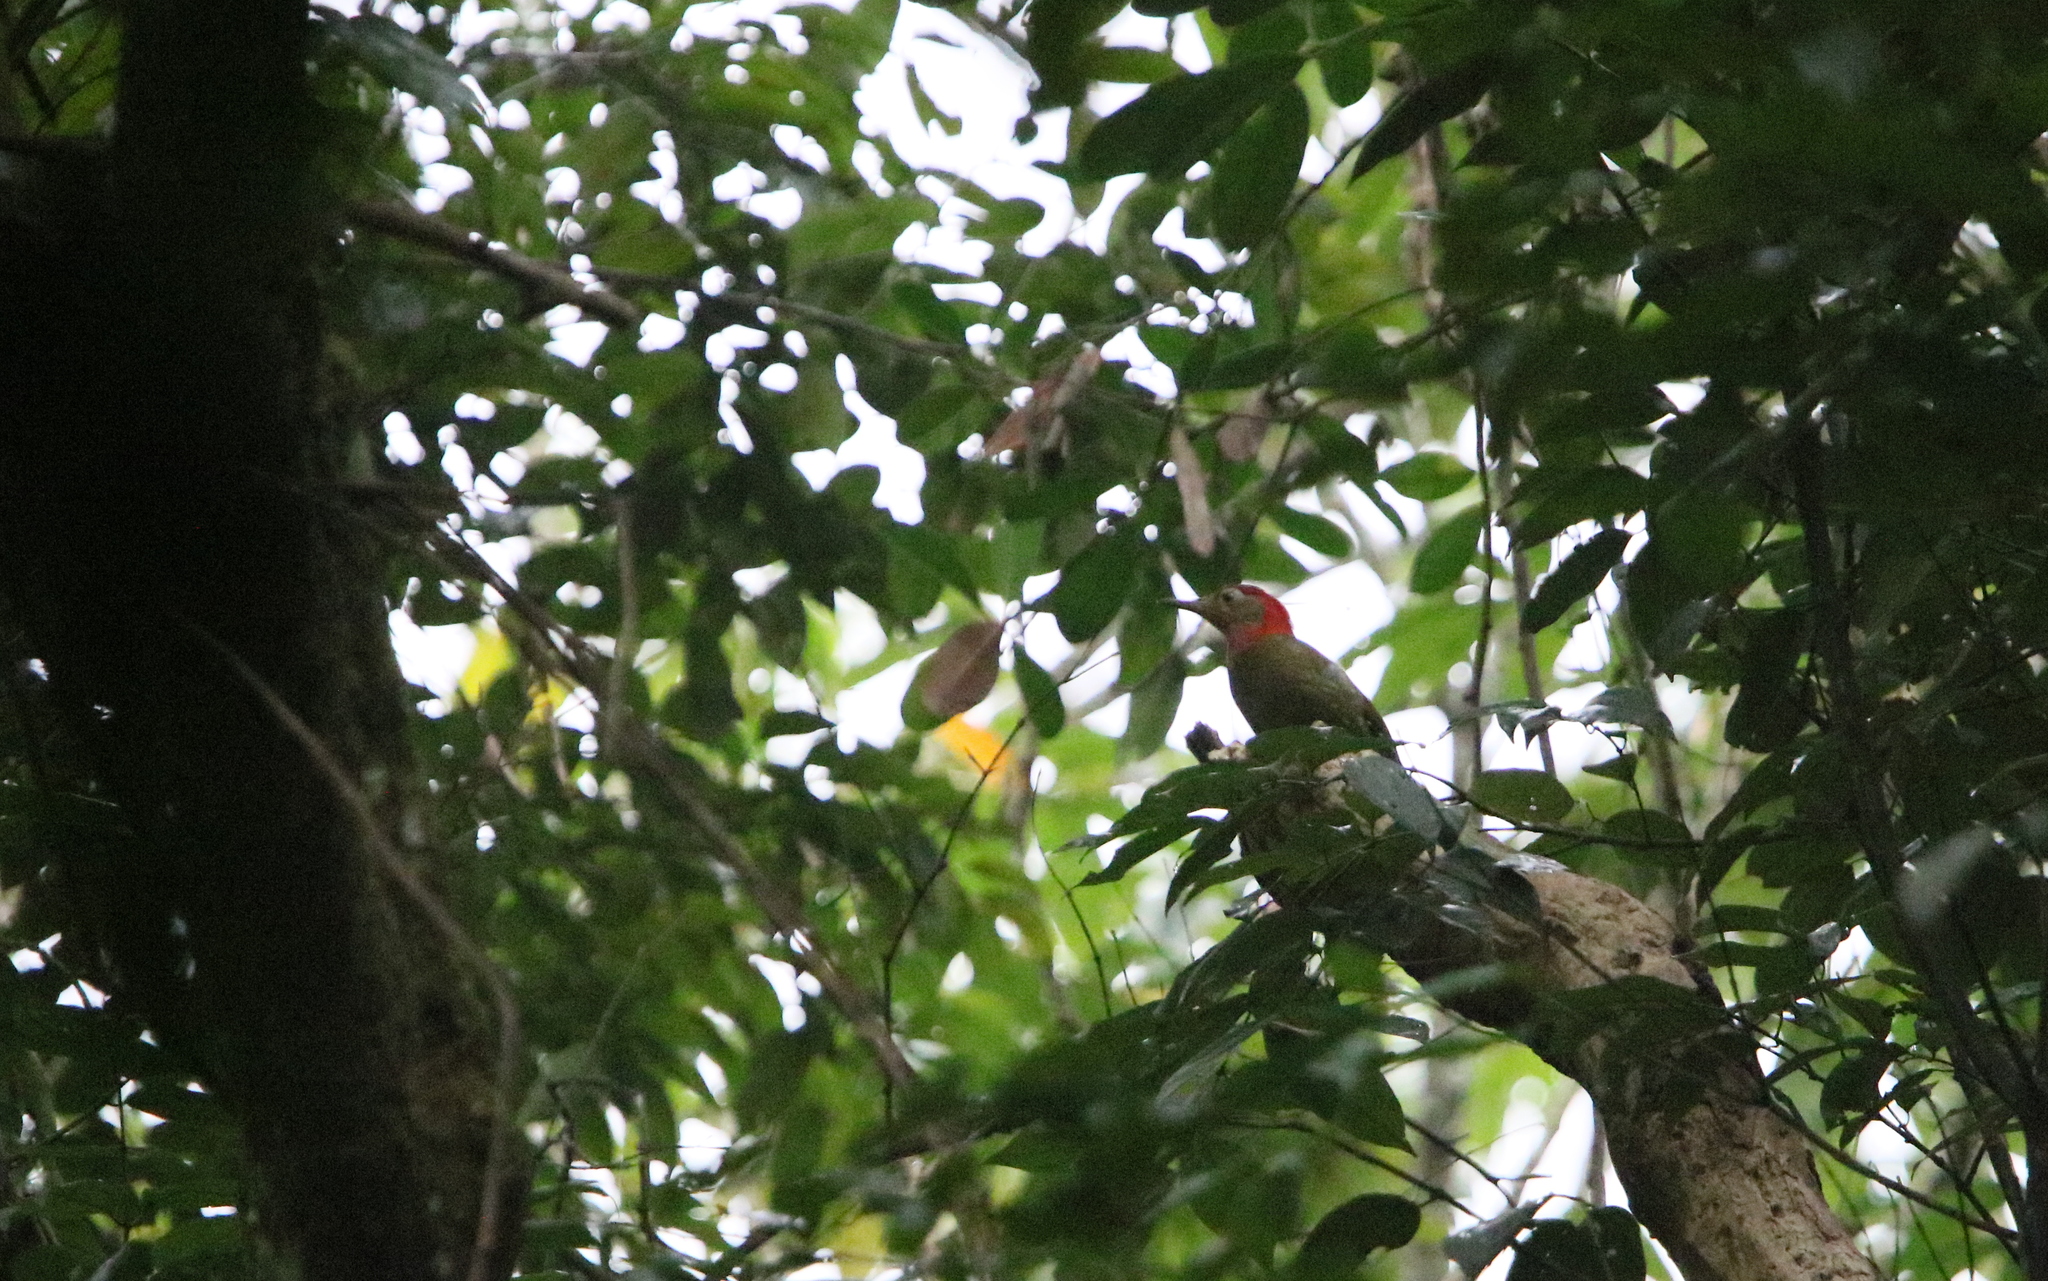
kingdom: Animalia
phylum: Chordata
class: Aves
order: Piciformes
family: Picidae
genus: Picus
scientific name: Picus rabieri
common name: Red-collared woodpecker
